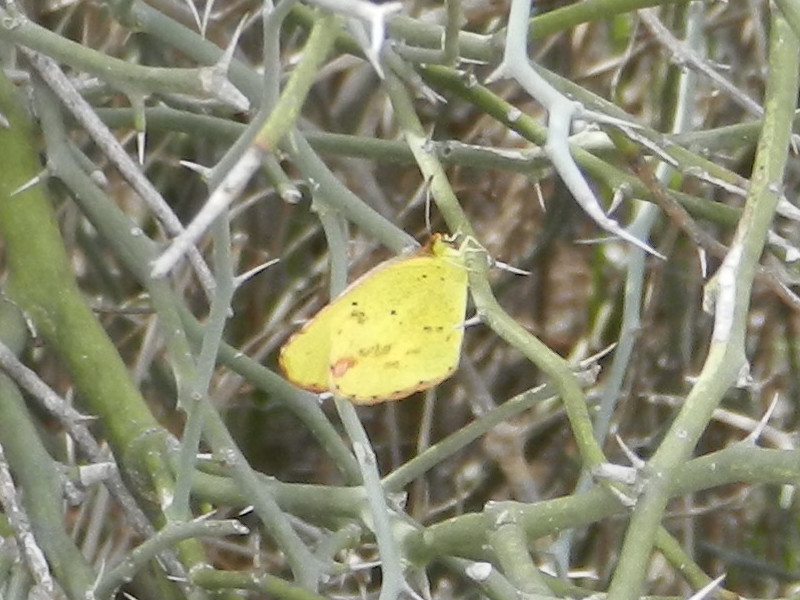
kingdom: Animalia
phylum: Arthropoda
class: Insecta
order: Lepidoptera
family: Pieridae
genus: Pyrisitia
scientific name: Pyrisitia lisa
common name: Little yellow
